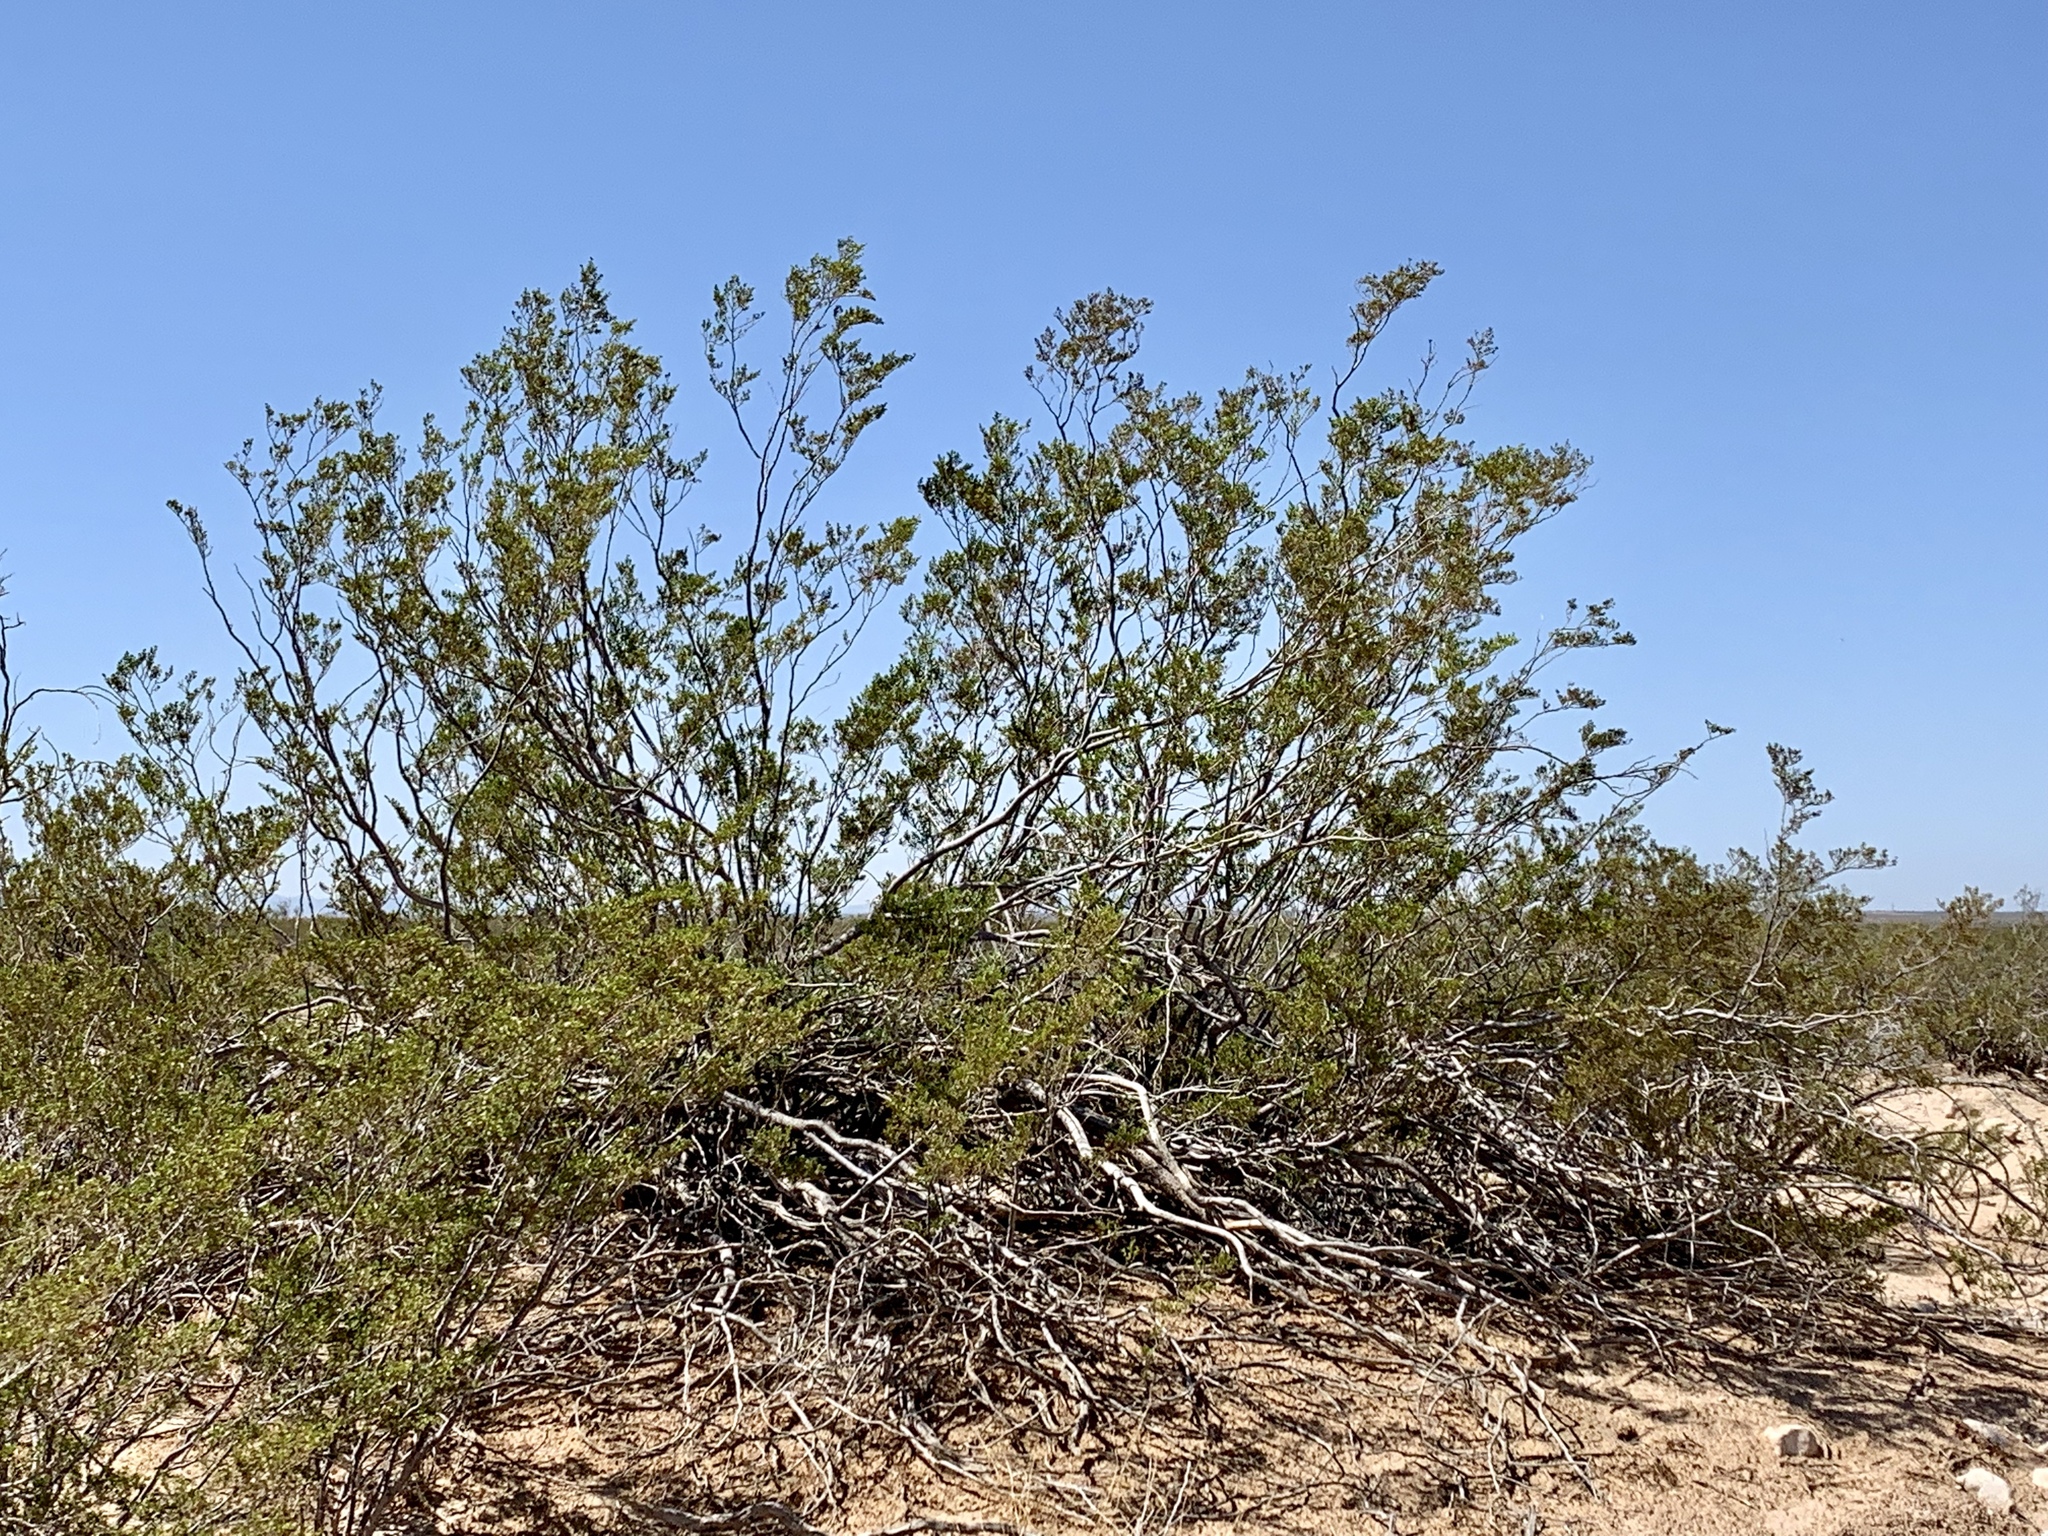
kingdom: Plantae
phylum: Tracheophyta
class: Magnoliopsida
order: Zygophyllales
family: Zygophyllaceae
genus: Larrea
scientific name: Larrea tridentata
